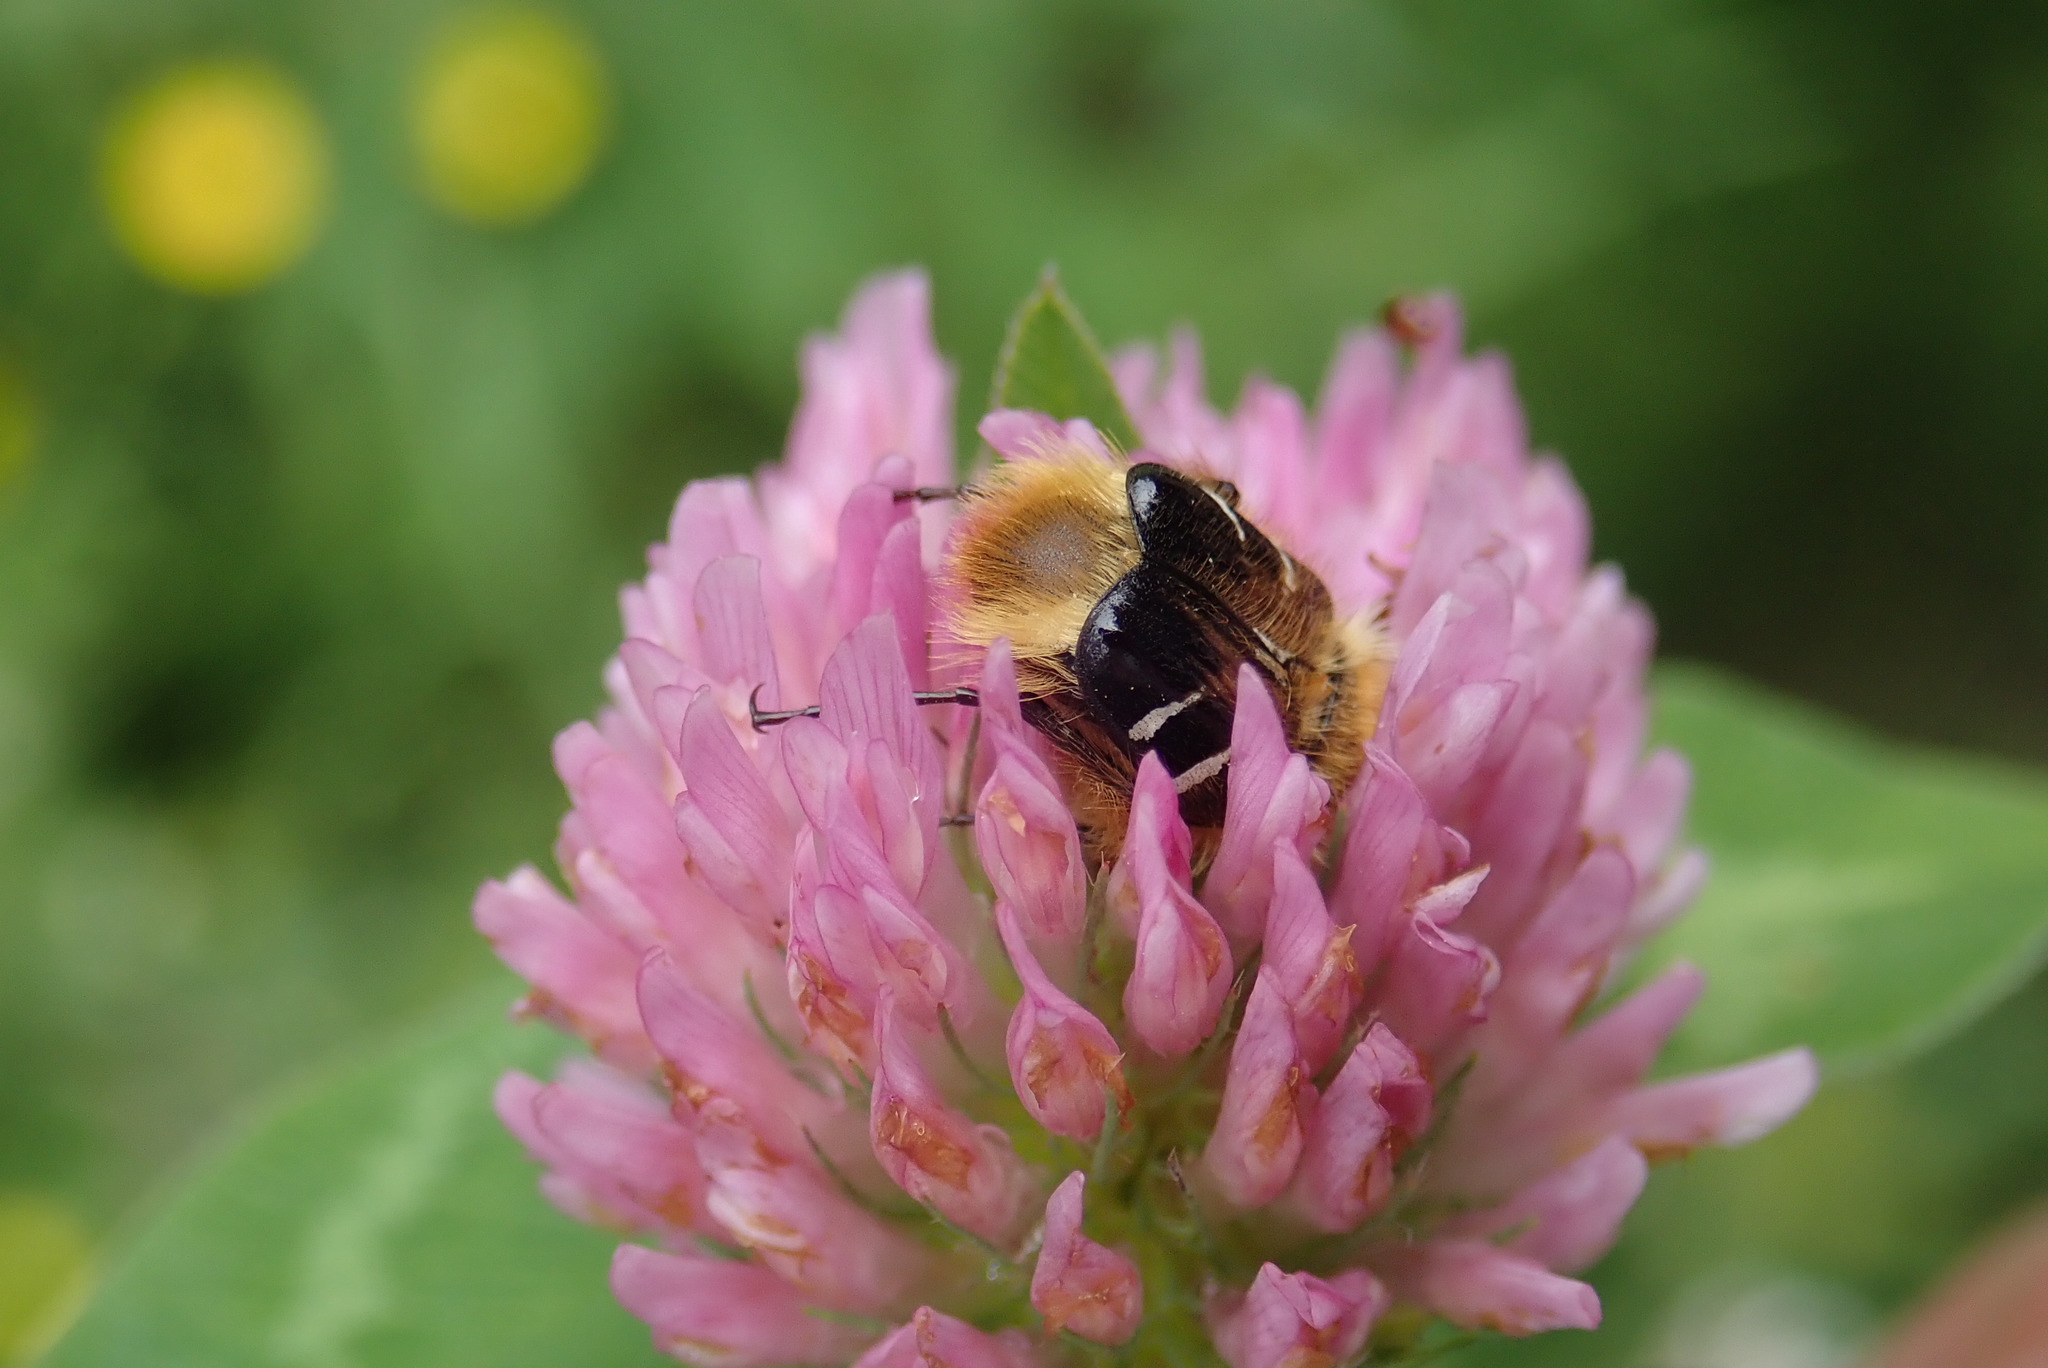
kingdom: Animalia
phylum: Arthropoda
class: Insecta
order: Coleoptera
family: Scarabaeidae
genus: Trichiotinus
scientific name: Trichiotinus assimilis
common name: Bee-mimic beetle
